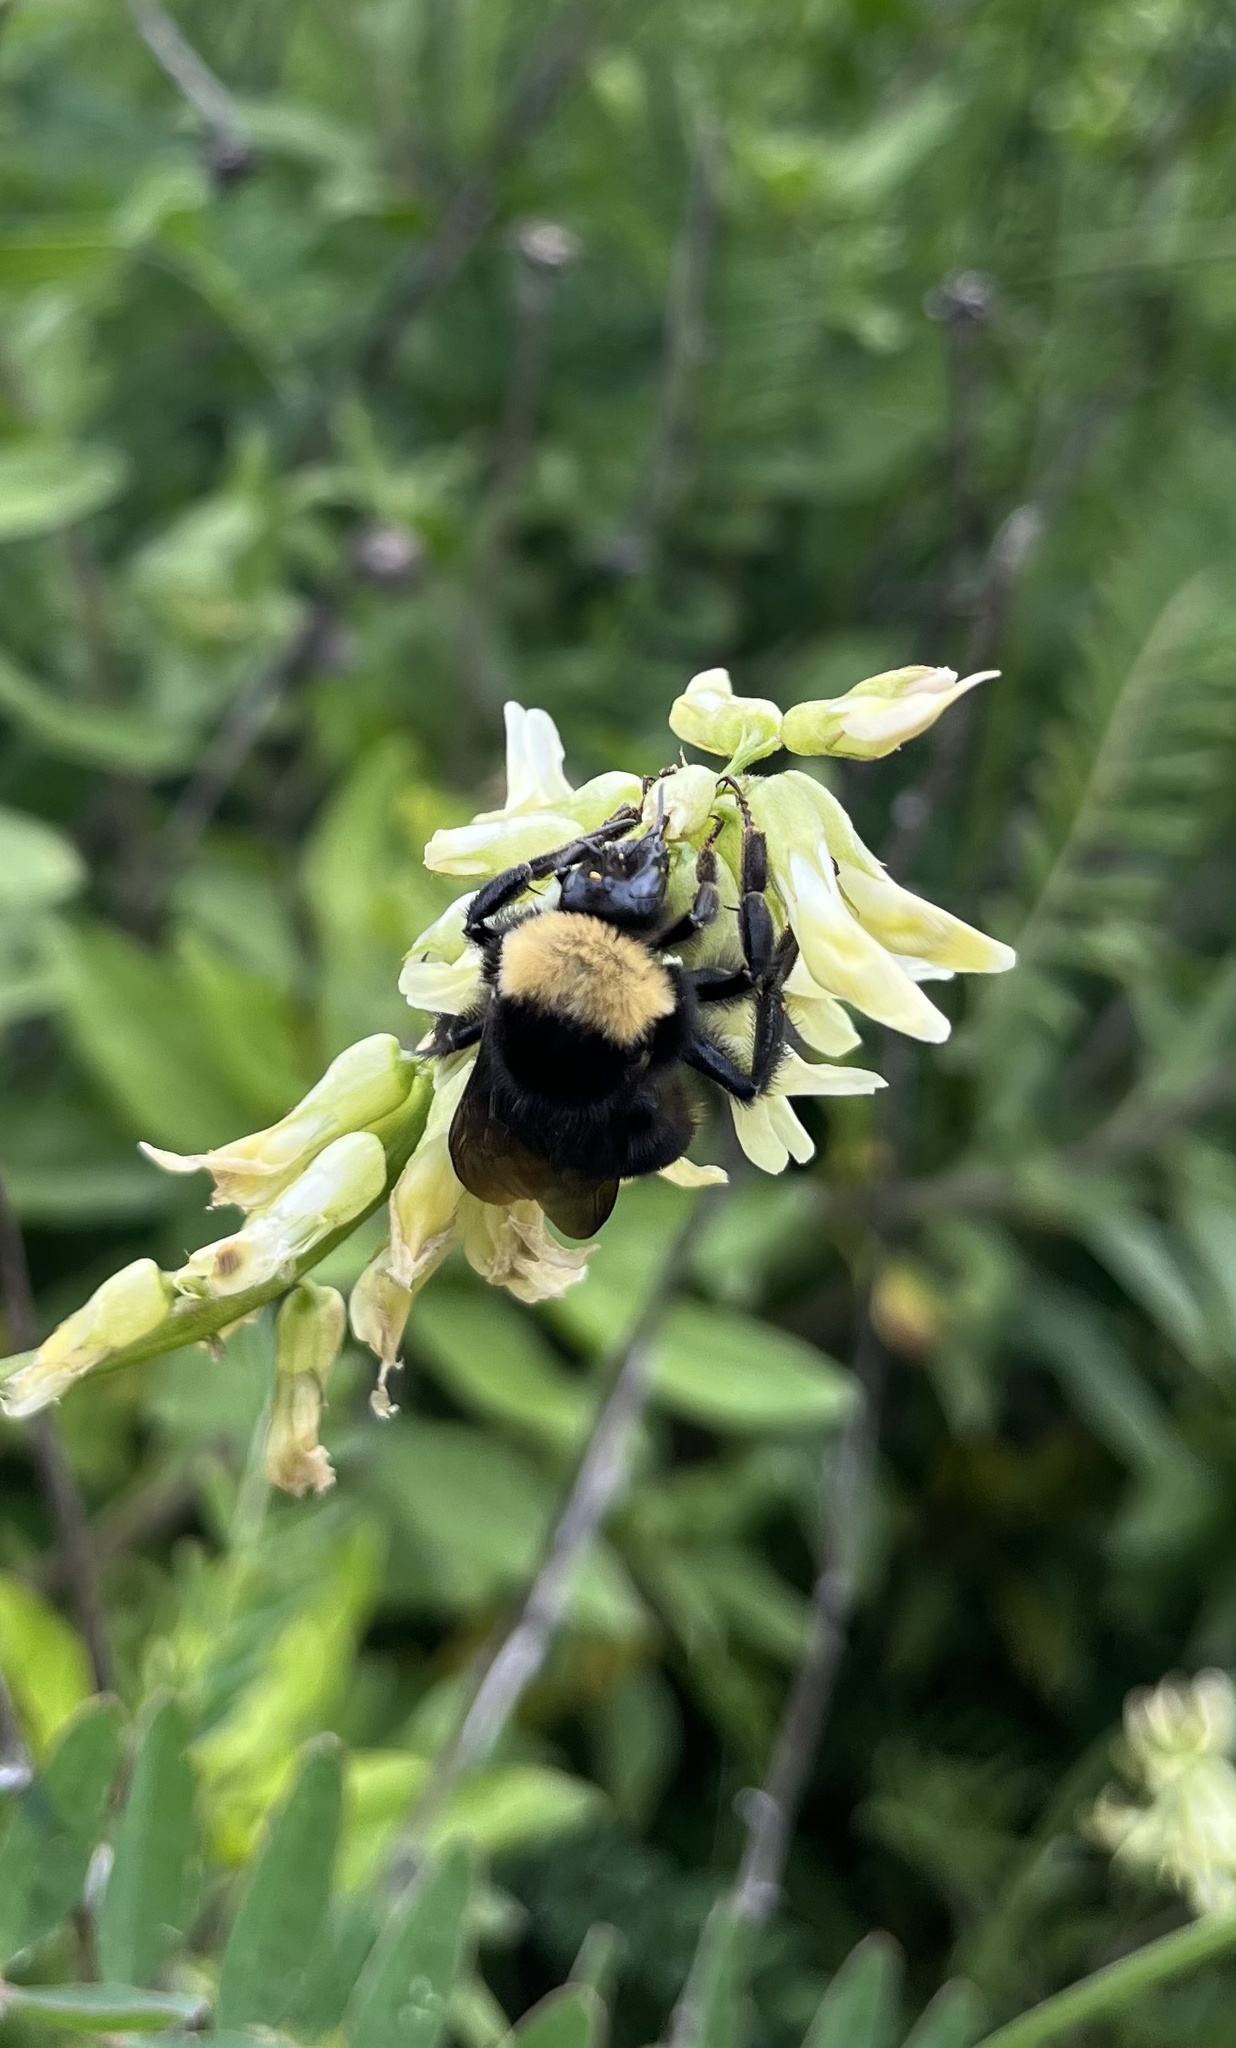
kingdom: Animalia
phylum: Arthropoda
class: Insecta
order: Hymenoptera
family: Apidae
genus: Bombus
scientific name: Bombus californicus
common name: California bumble bee
